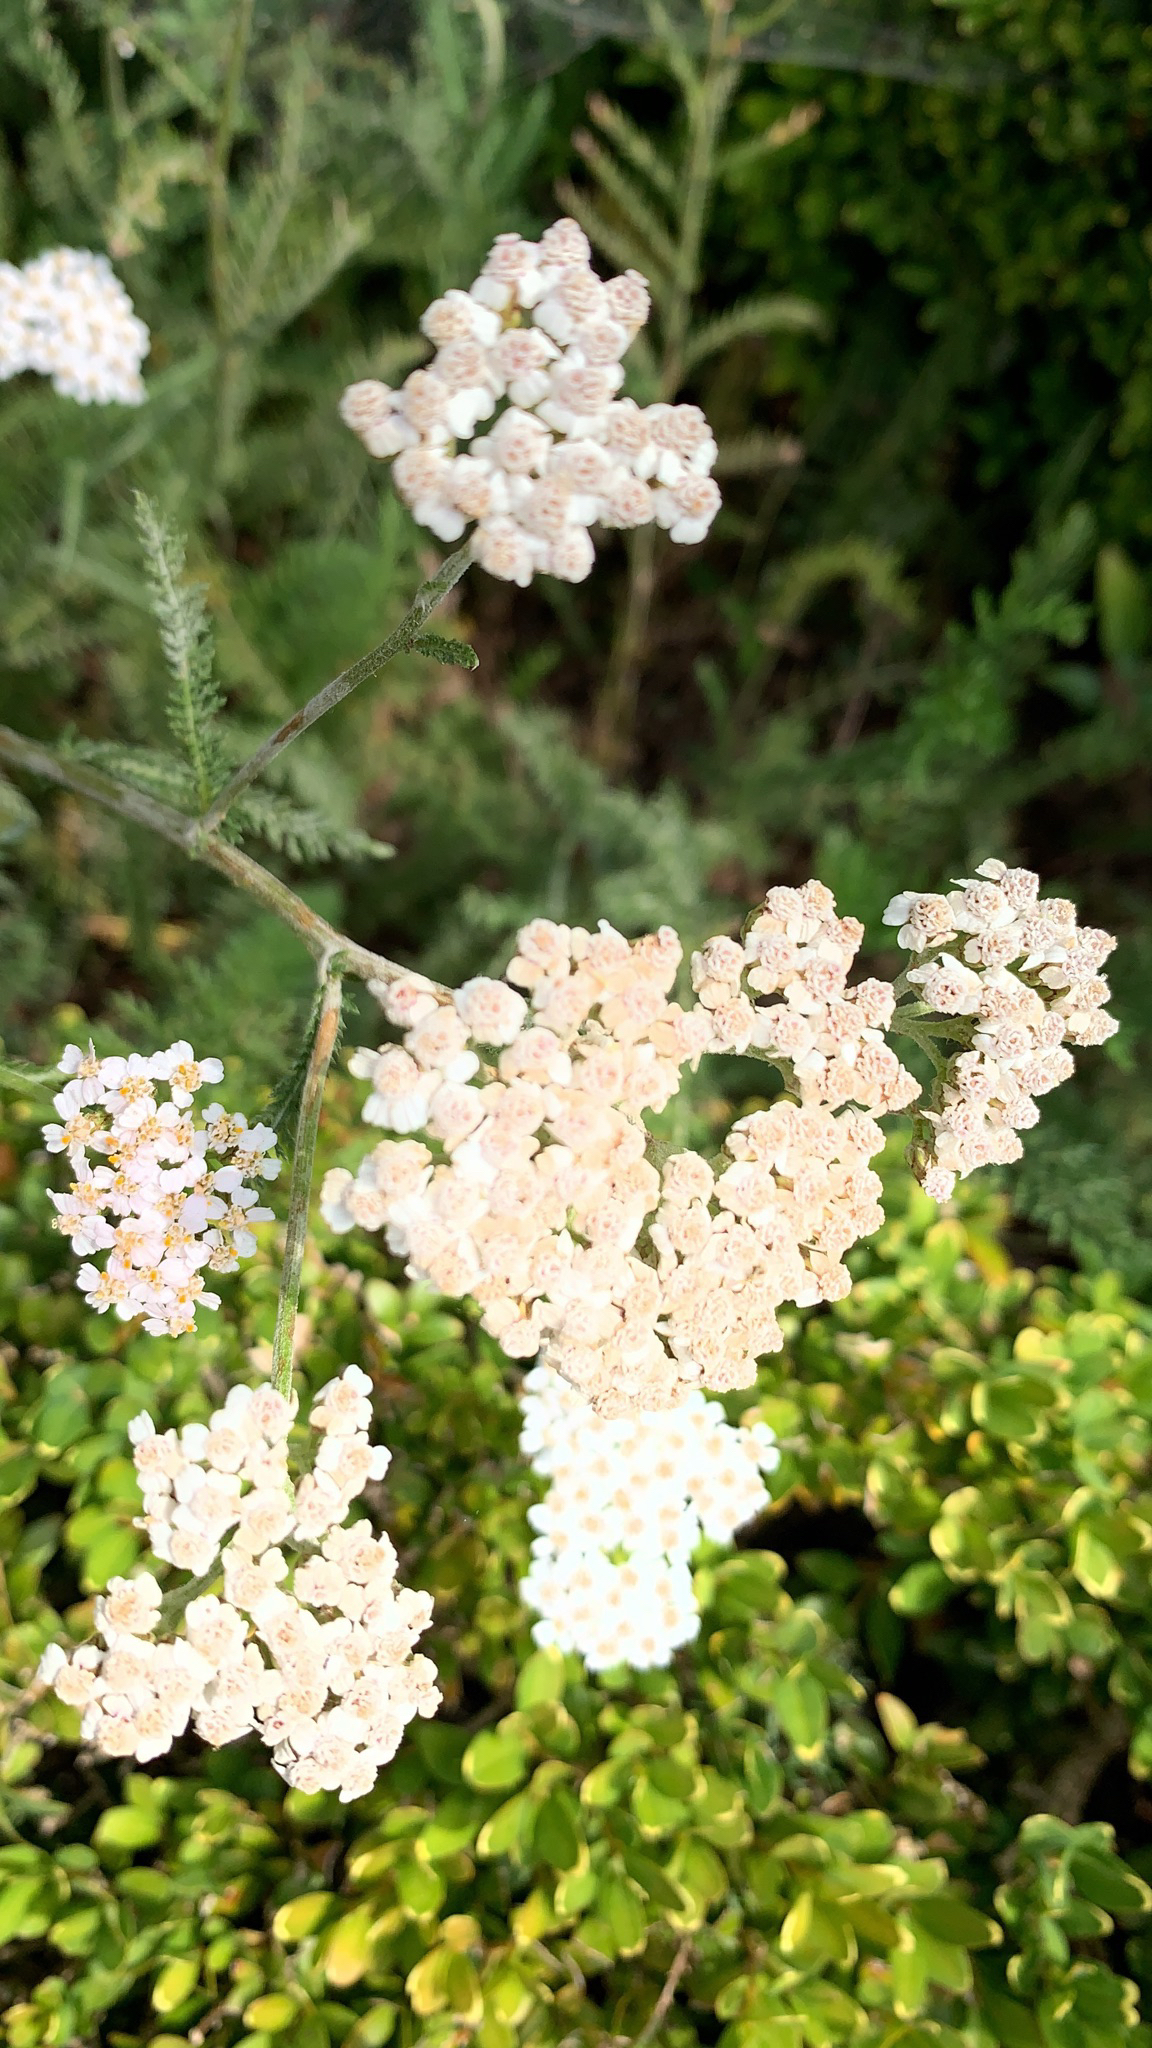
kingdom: Plantae
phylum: Tracheophyta
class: Magnoliopsida
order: Asterales
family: Asteraceae
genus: Achillea
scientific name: Achillea millefolium
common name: Yarrow
